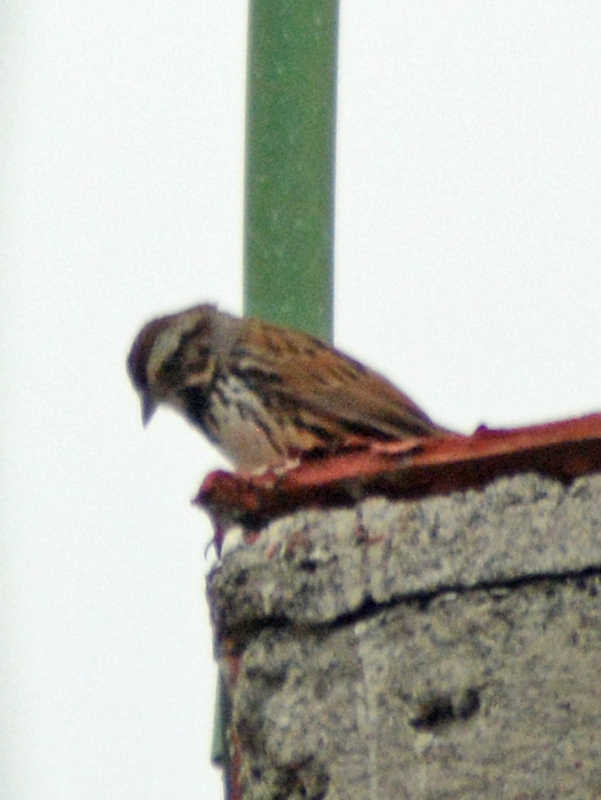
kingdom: Animalia
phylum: Chordata
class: Aves
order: Passeriformes
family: Passerellidae
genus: Melospiza
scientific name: Melospiza melodia
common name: Song sparrow
